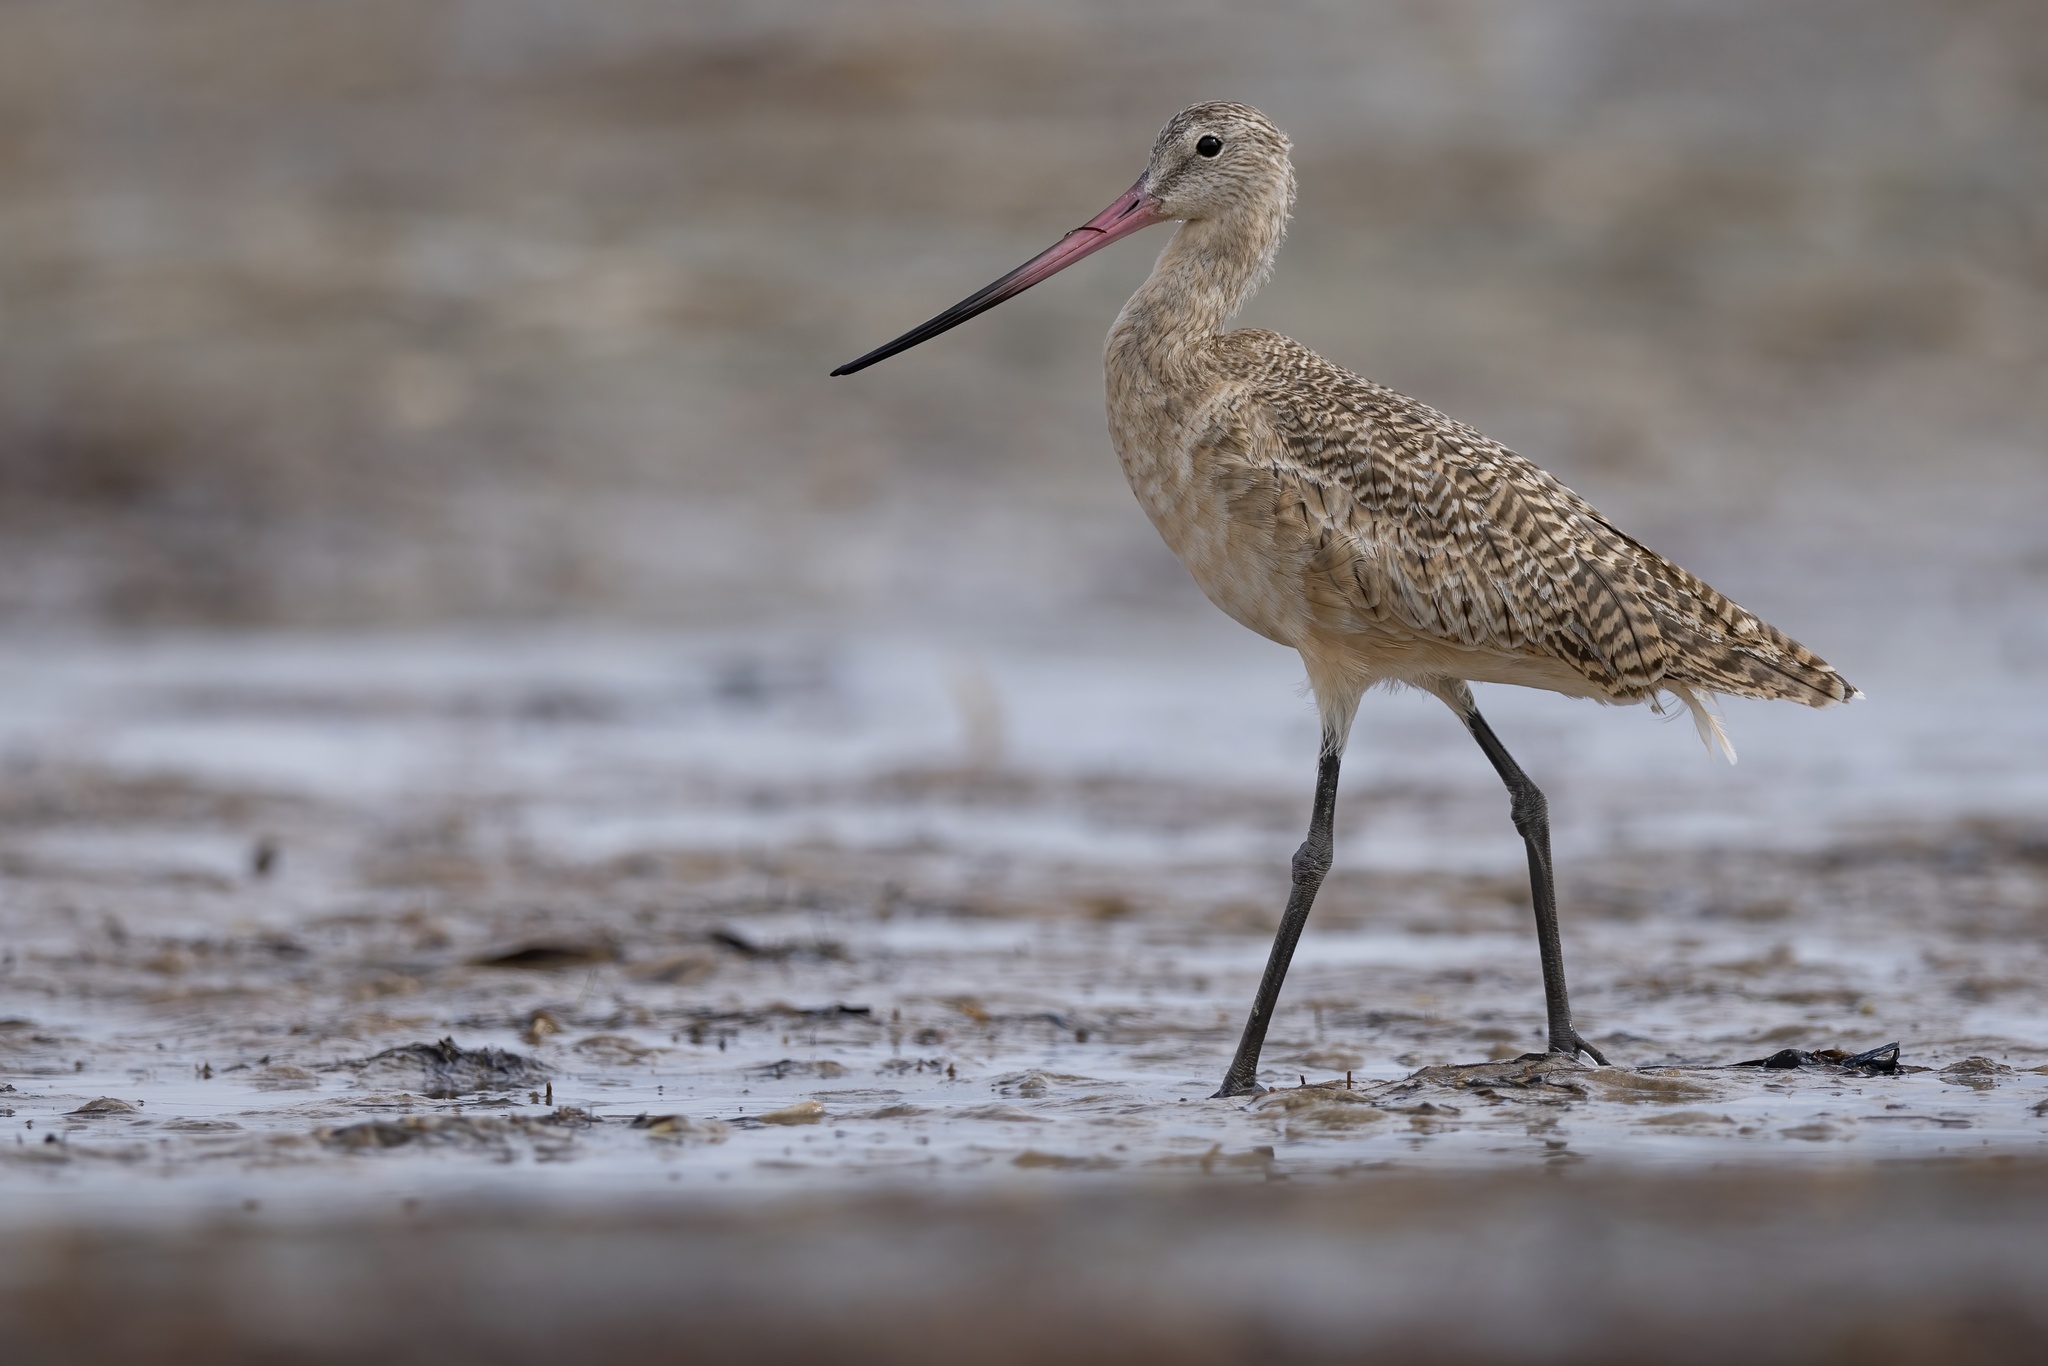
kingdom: Animalia
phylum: Chordata
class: Aves
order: Charadriiformes
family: Scolopacidae
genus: Limosa
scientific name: Limosa fedoa
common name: Marbled godwit
